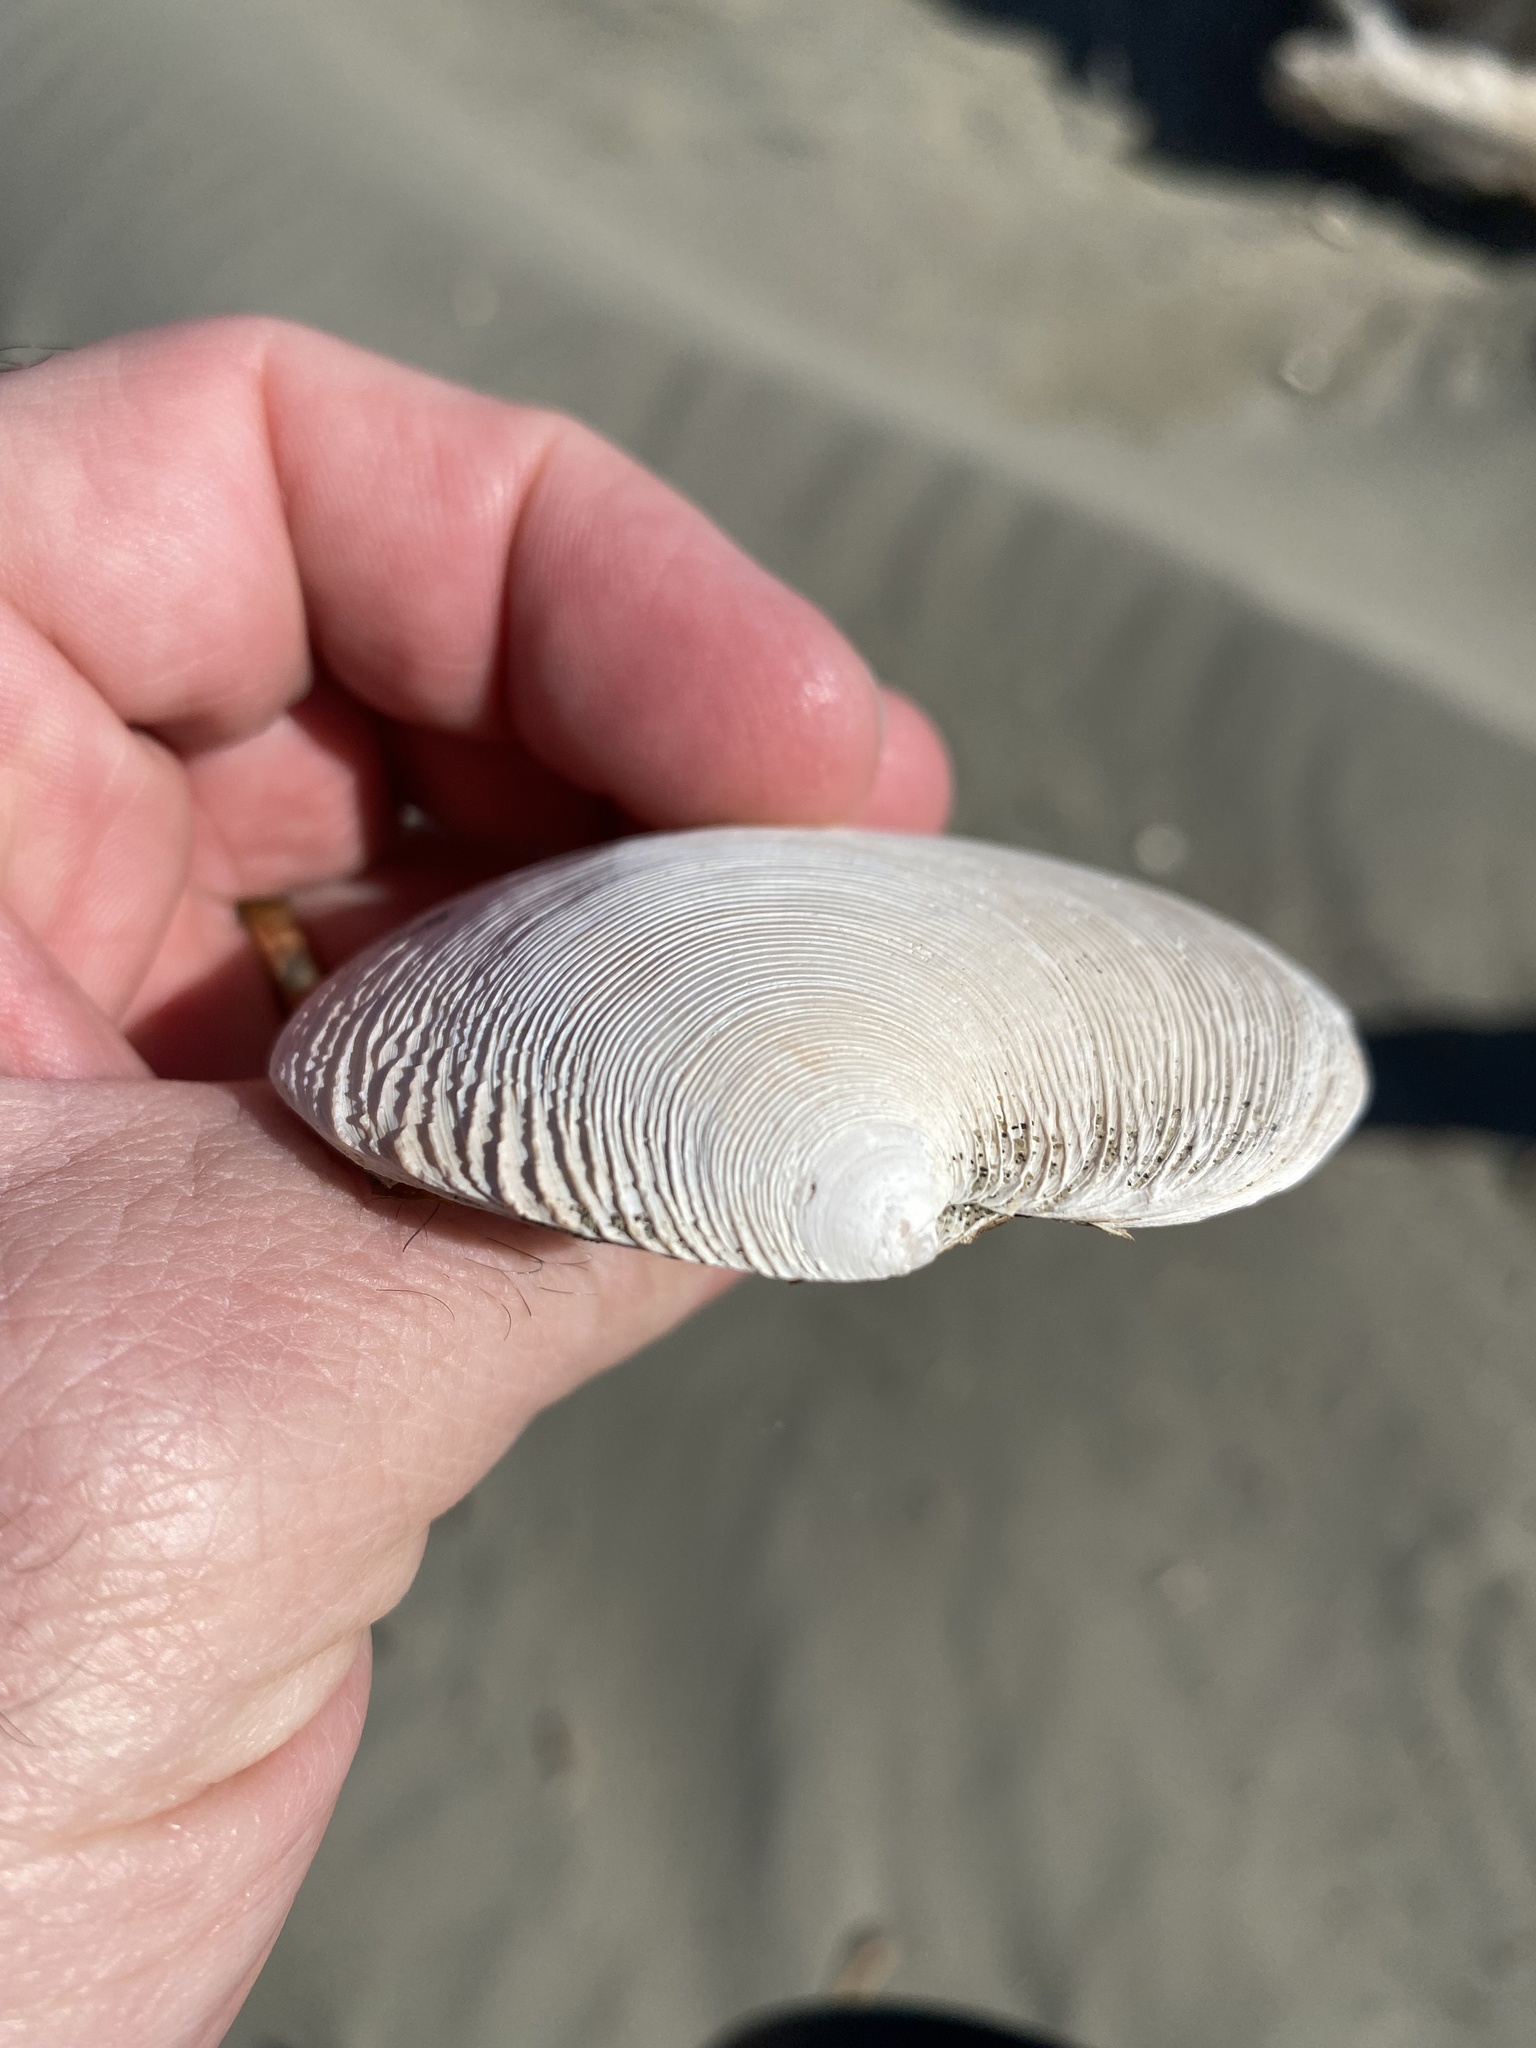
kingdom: Animalia
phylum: Mollusca
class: Bivalvia
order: Venerida
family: Veneridae
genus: Dosinia
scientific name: Dosinia anus
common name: Old-woman dosinia
